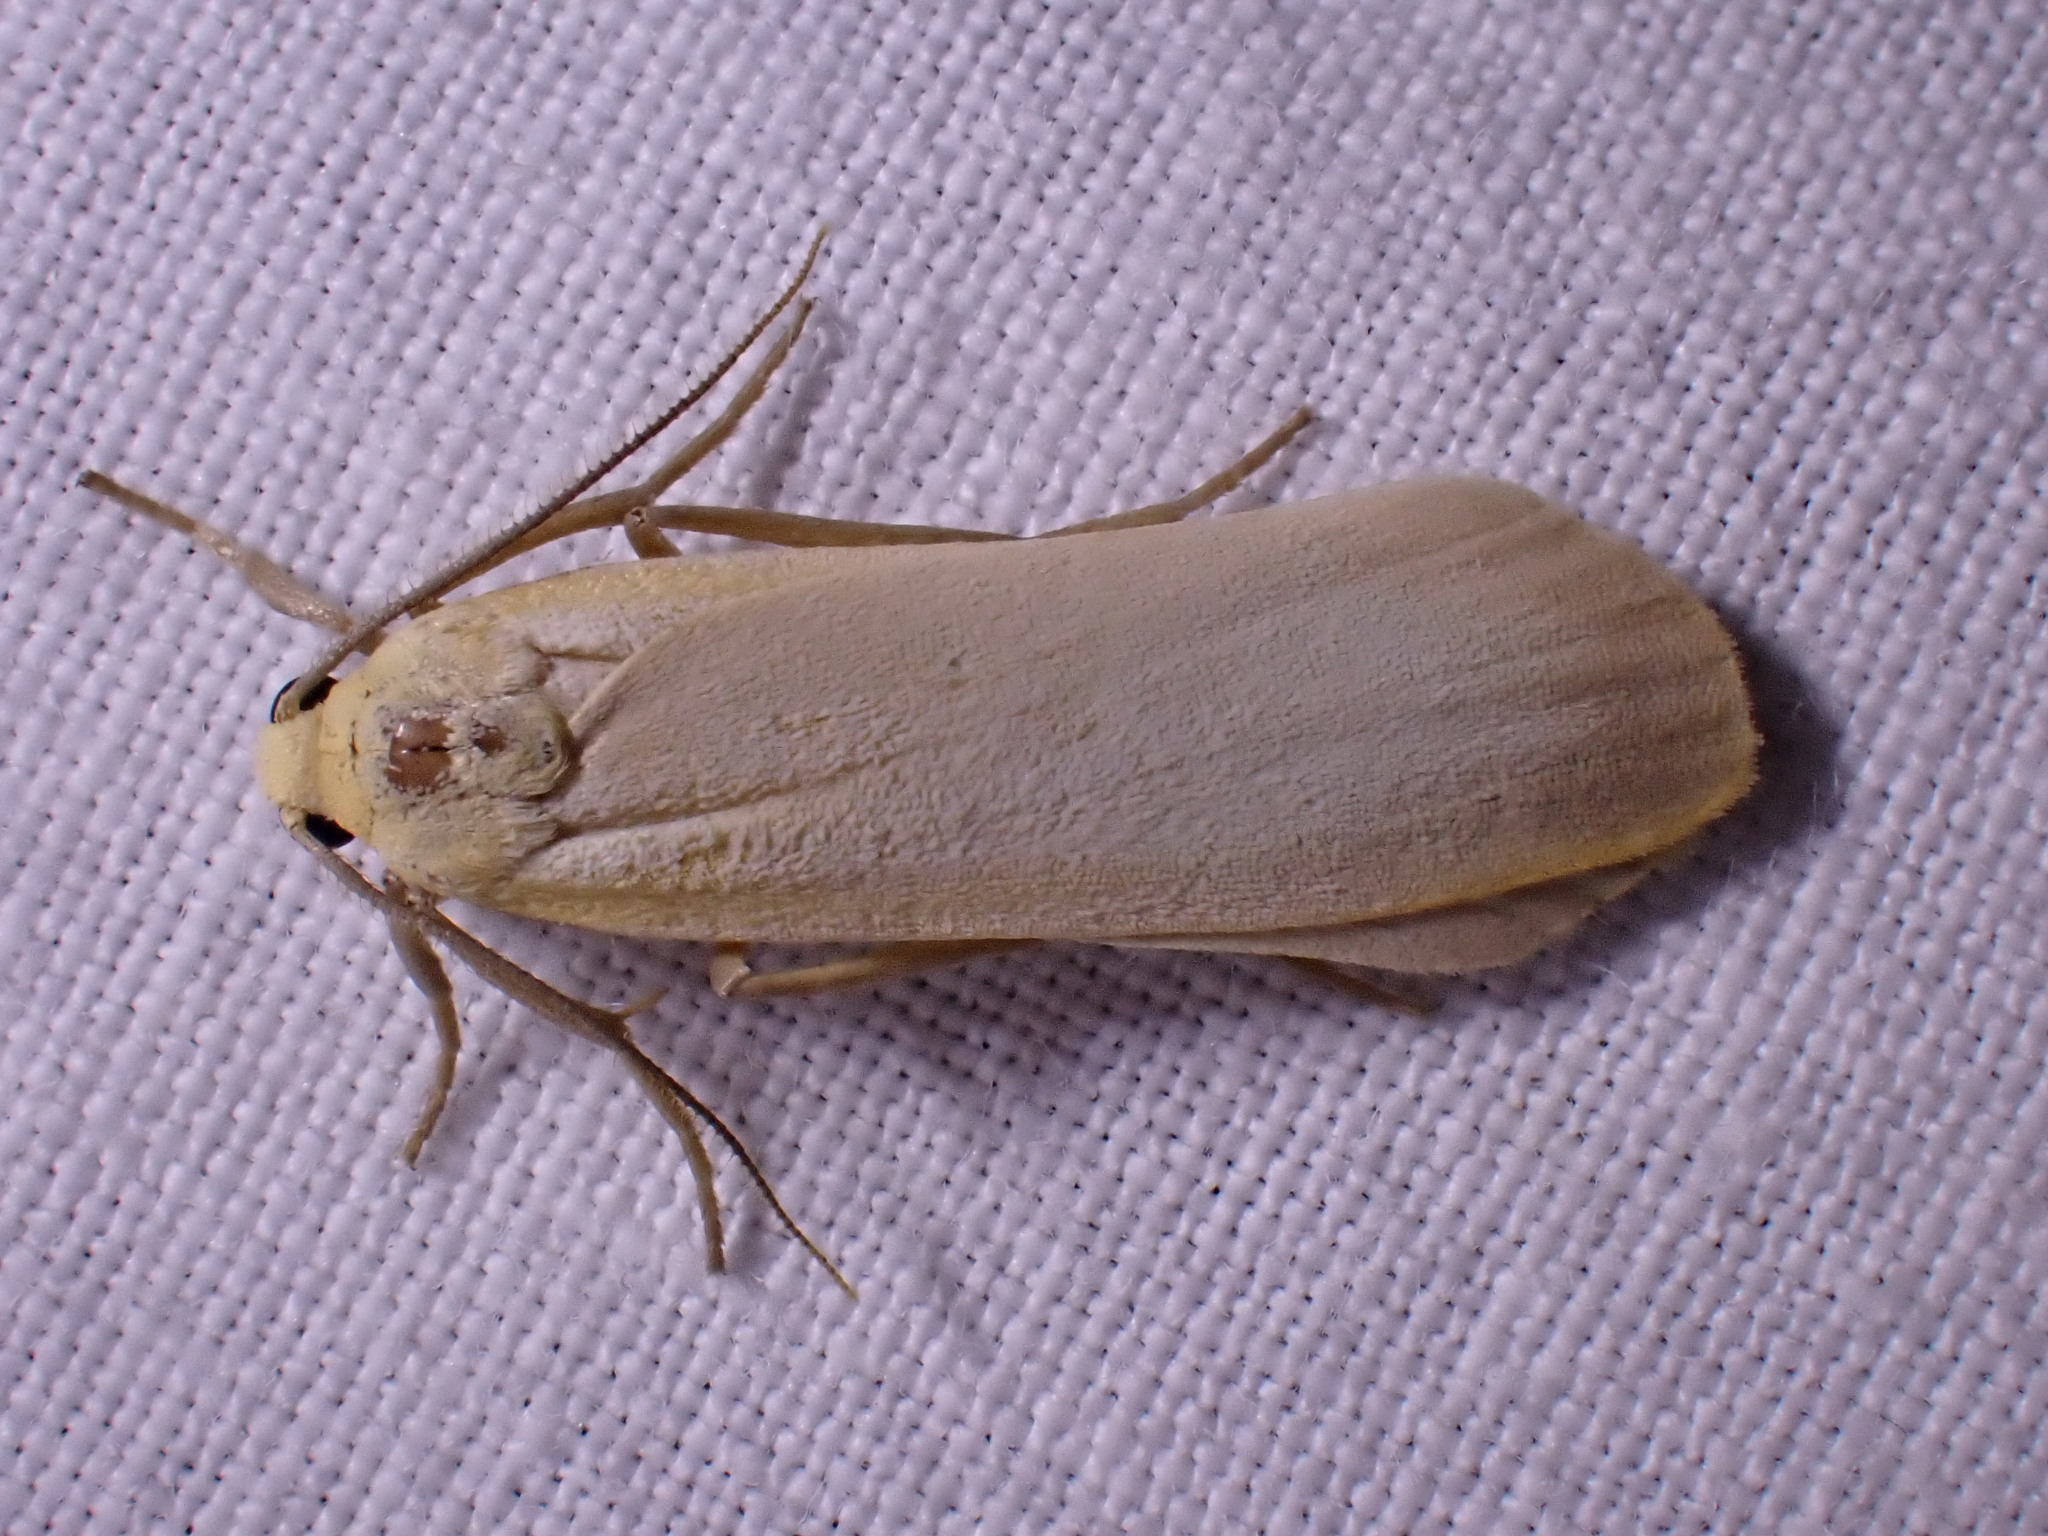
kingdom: Animalia
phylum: Arthropoda
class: Insecta
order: Lepidoptera
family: Erebidae
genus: Katha
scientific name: Katha depressa
